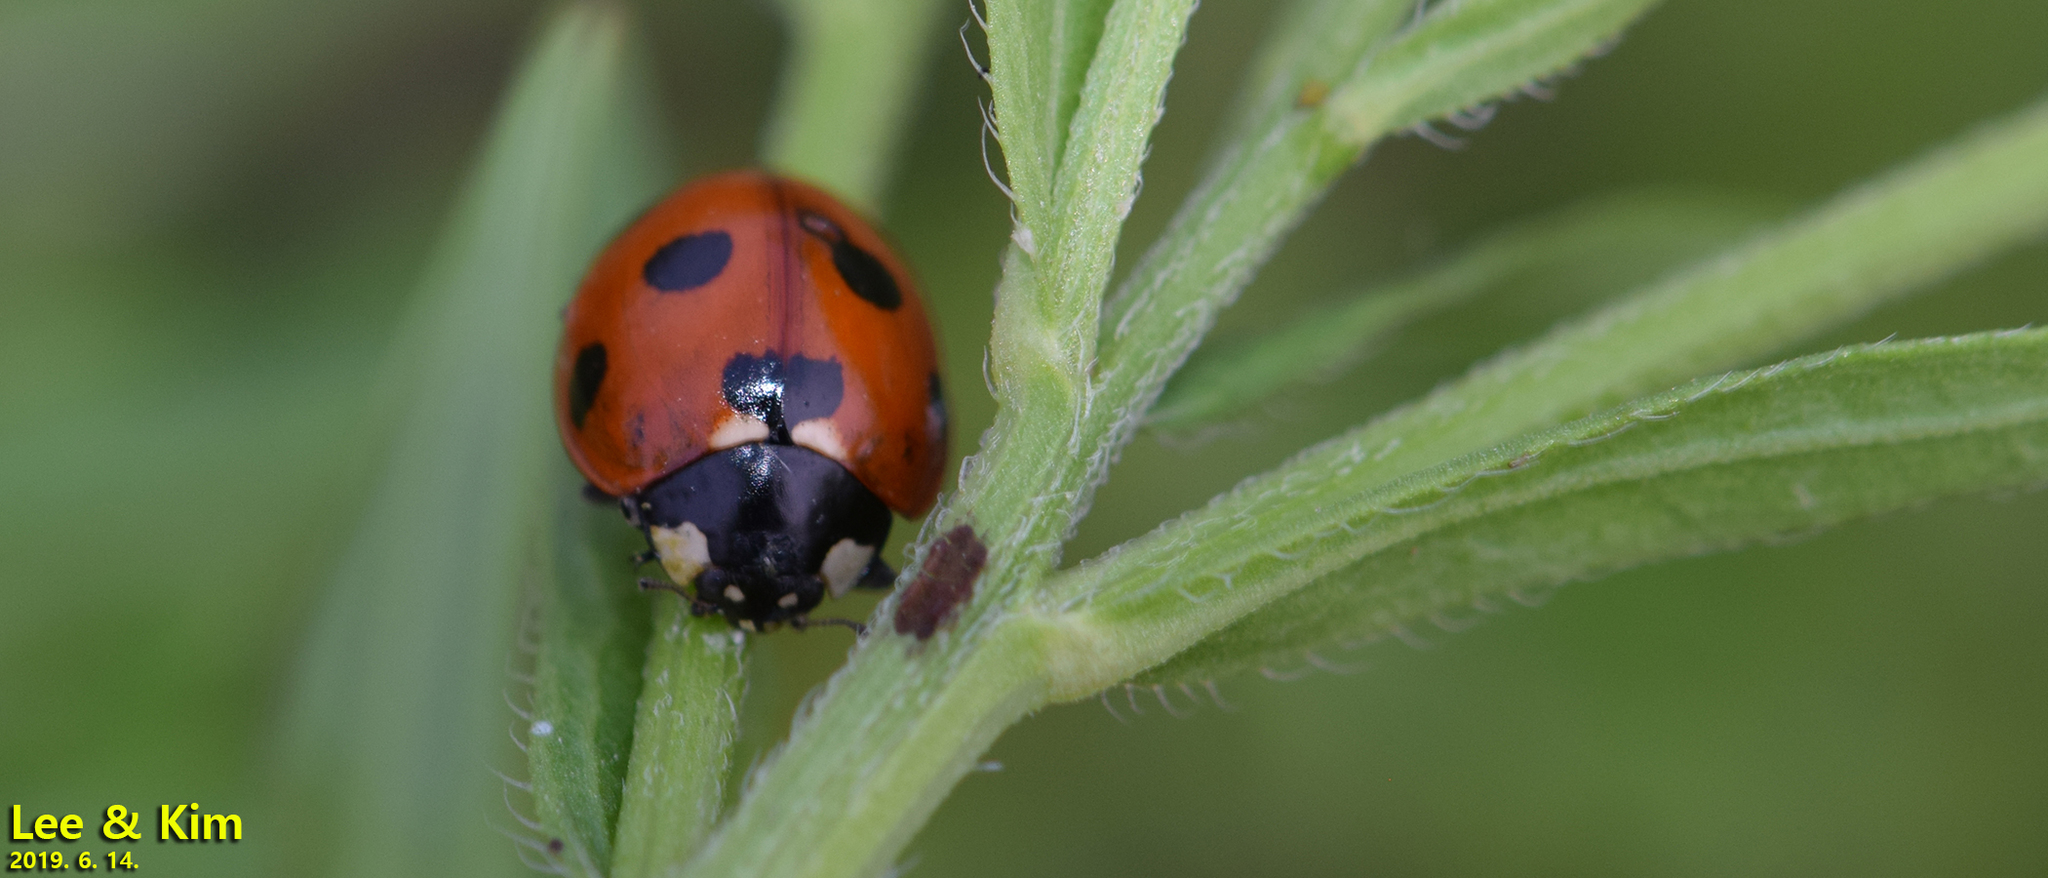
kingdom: Animalia
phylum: Arthropoda
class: Insecta
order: Coleoptera
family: Coccinellidae
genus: Coccinella
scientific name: Coccinella septempunctata
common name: Sevenspotted lady beetle
